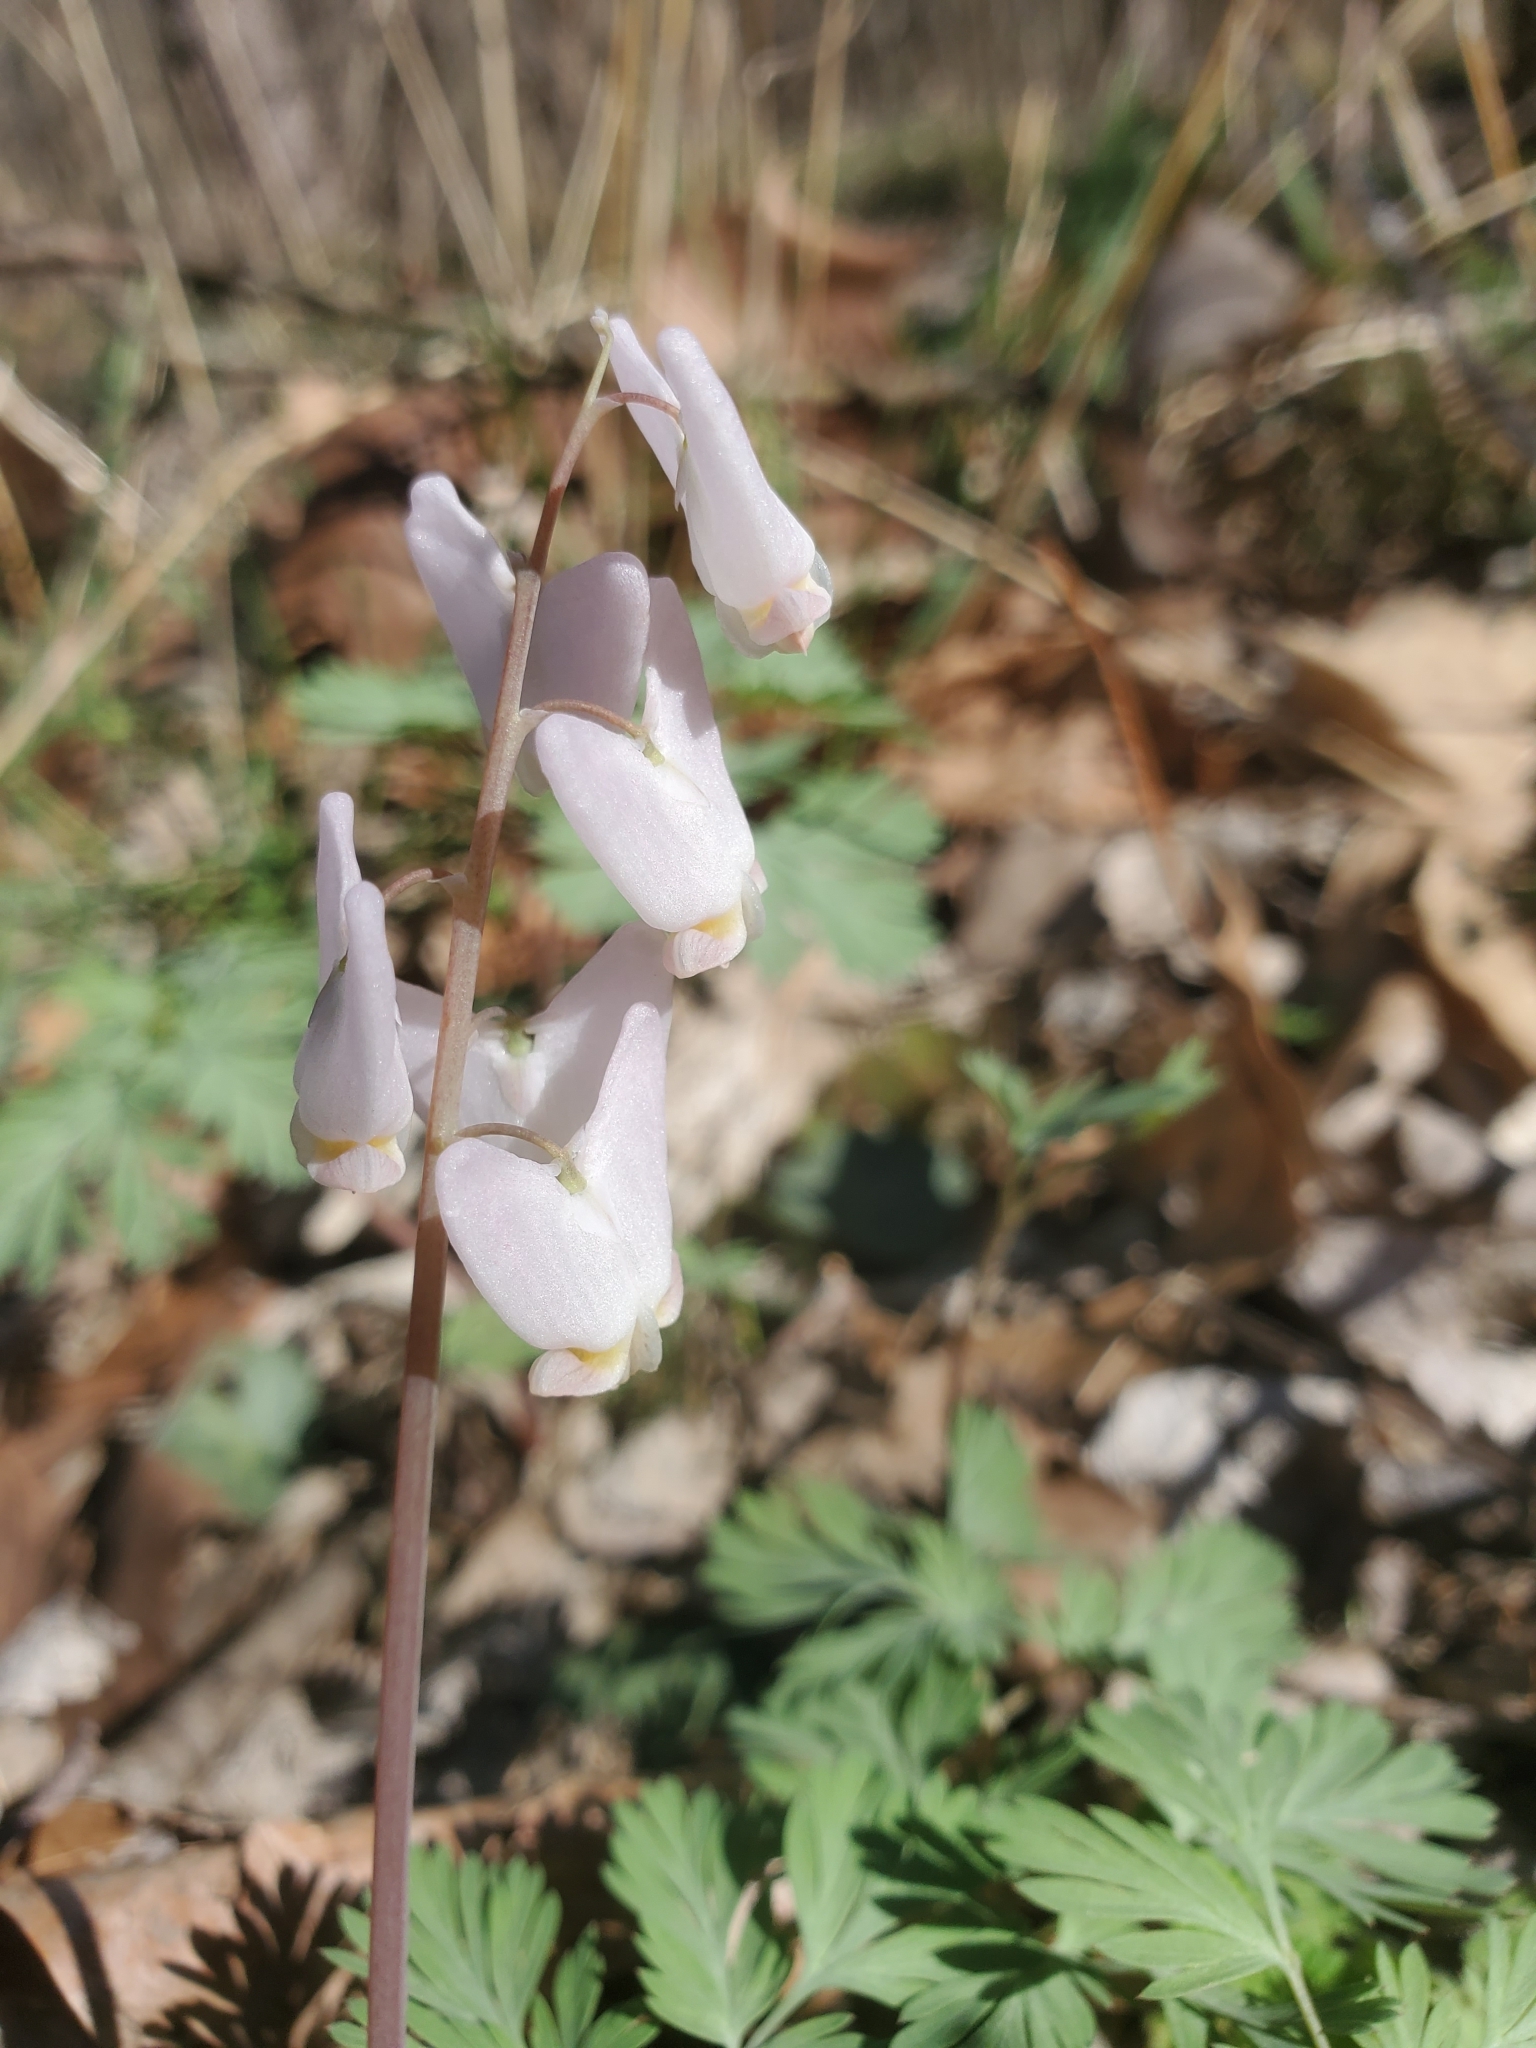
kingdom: Plantae
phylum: Tracheophyta
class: Magnoliopsida
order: Ranunculales
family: Papaveraceae
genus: Dicentra
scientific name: Dicentra cucullaria
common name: Dutchman's breeches
